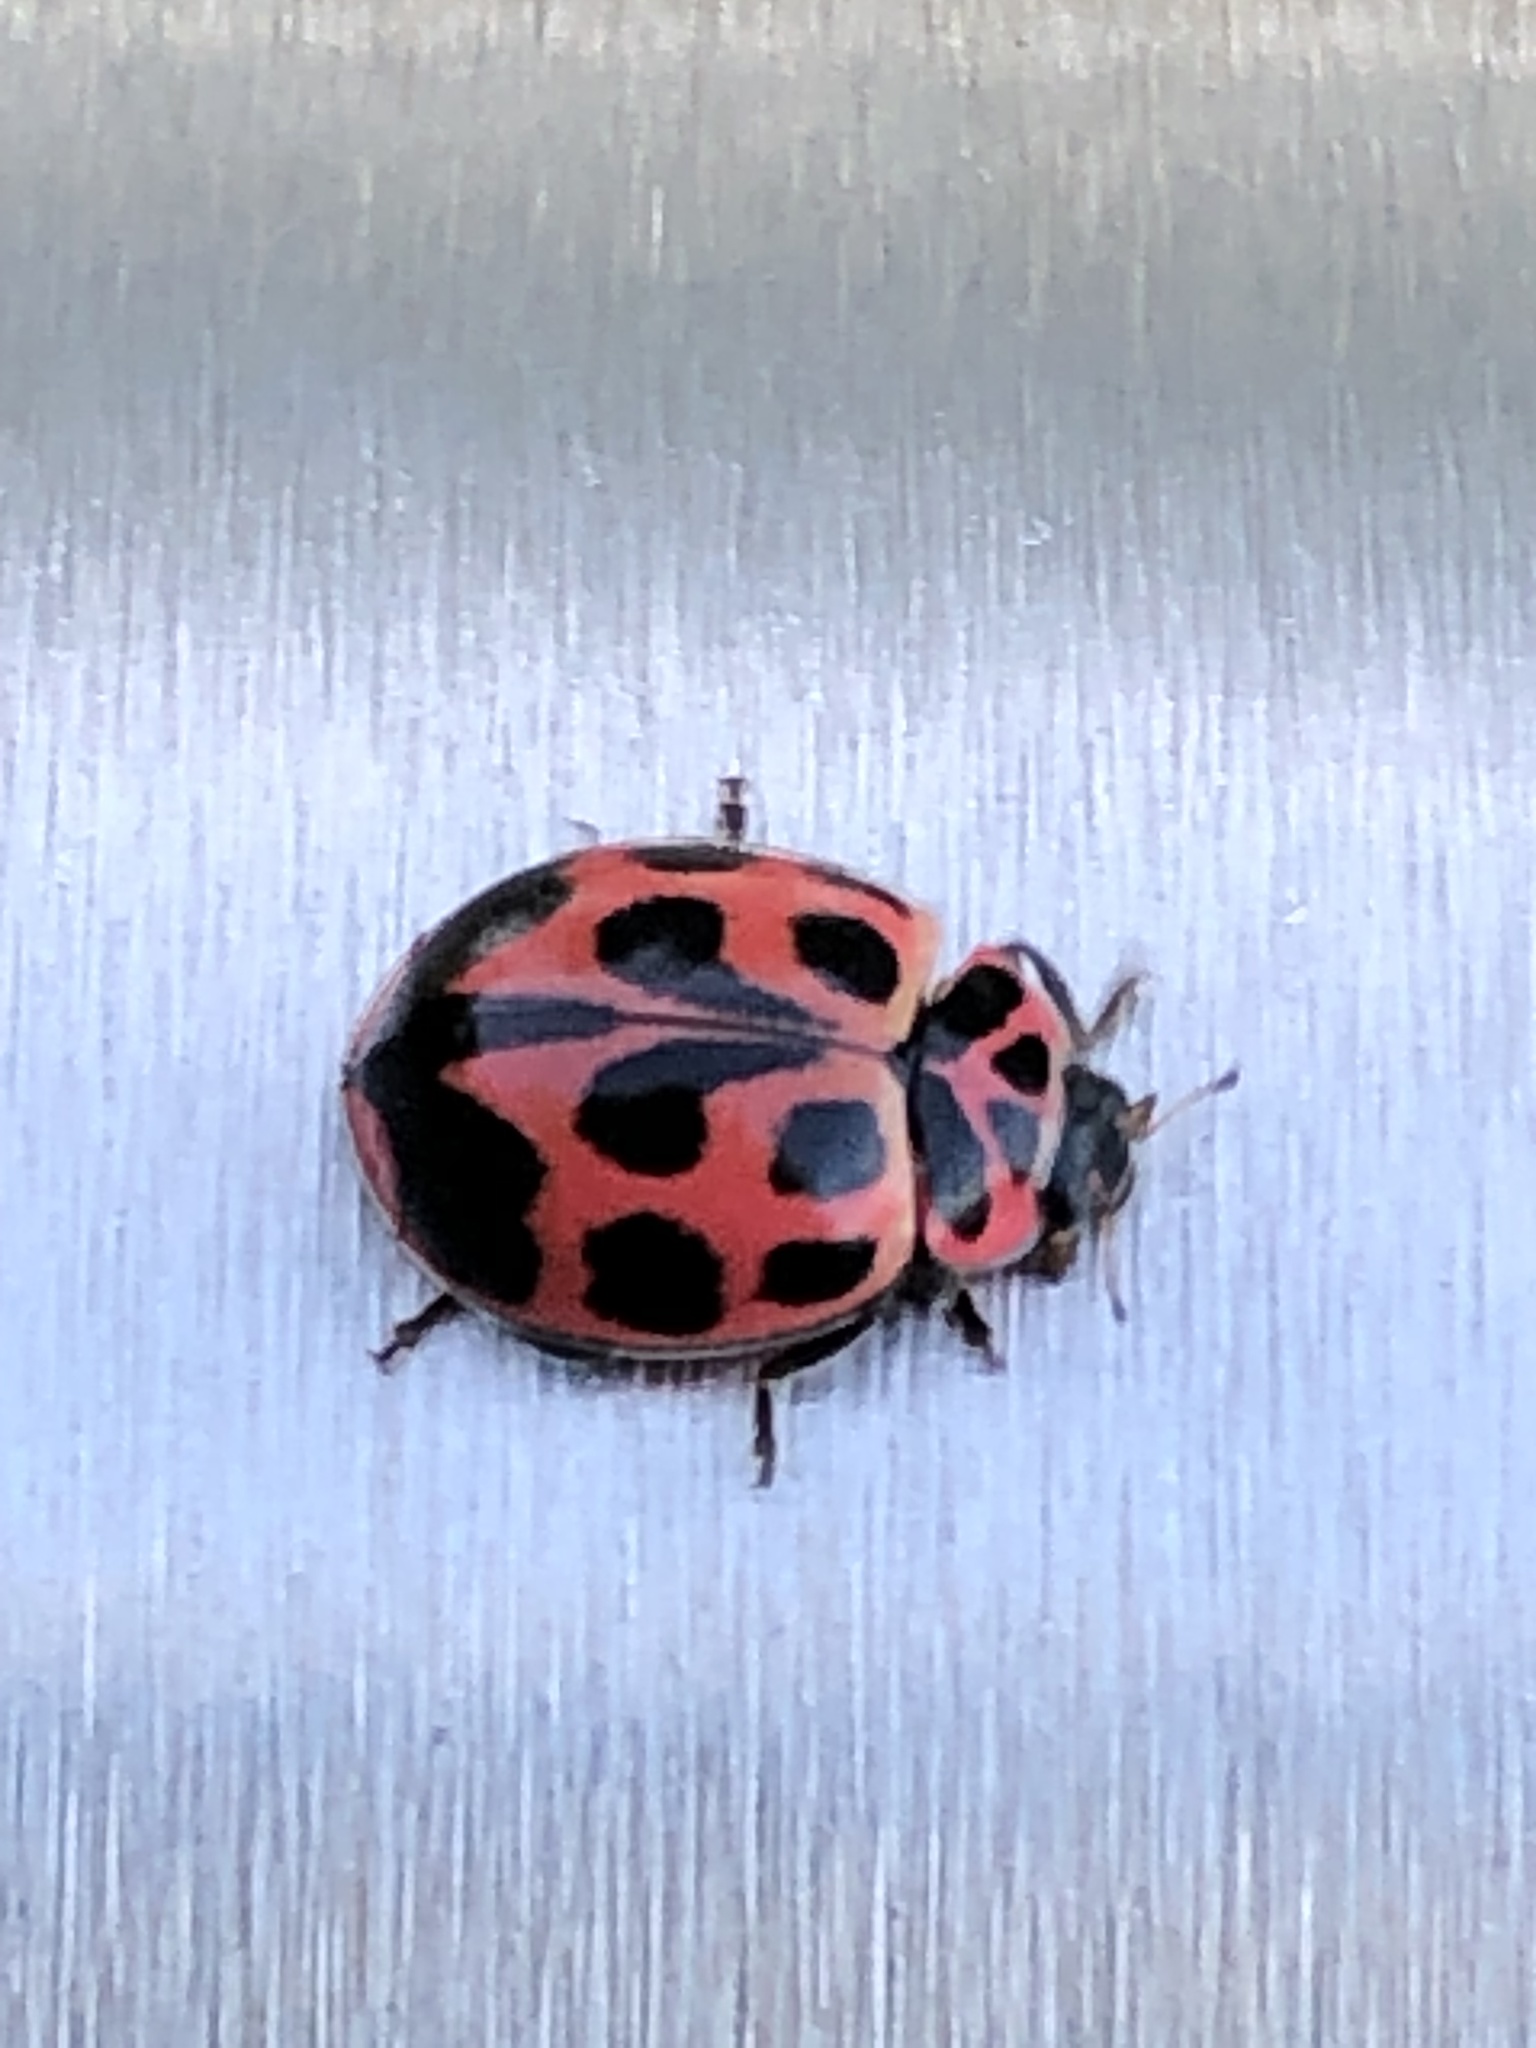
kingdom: Animalia
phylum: Arthropoda
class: Insecta
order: Coleoptera
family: Coccinellidae
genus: Neoharmonia
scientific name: Neoharmonia venusta
